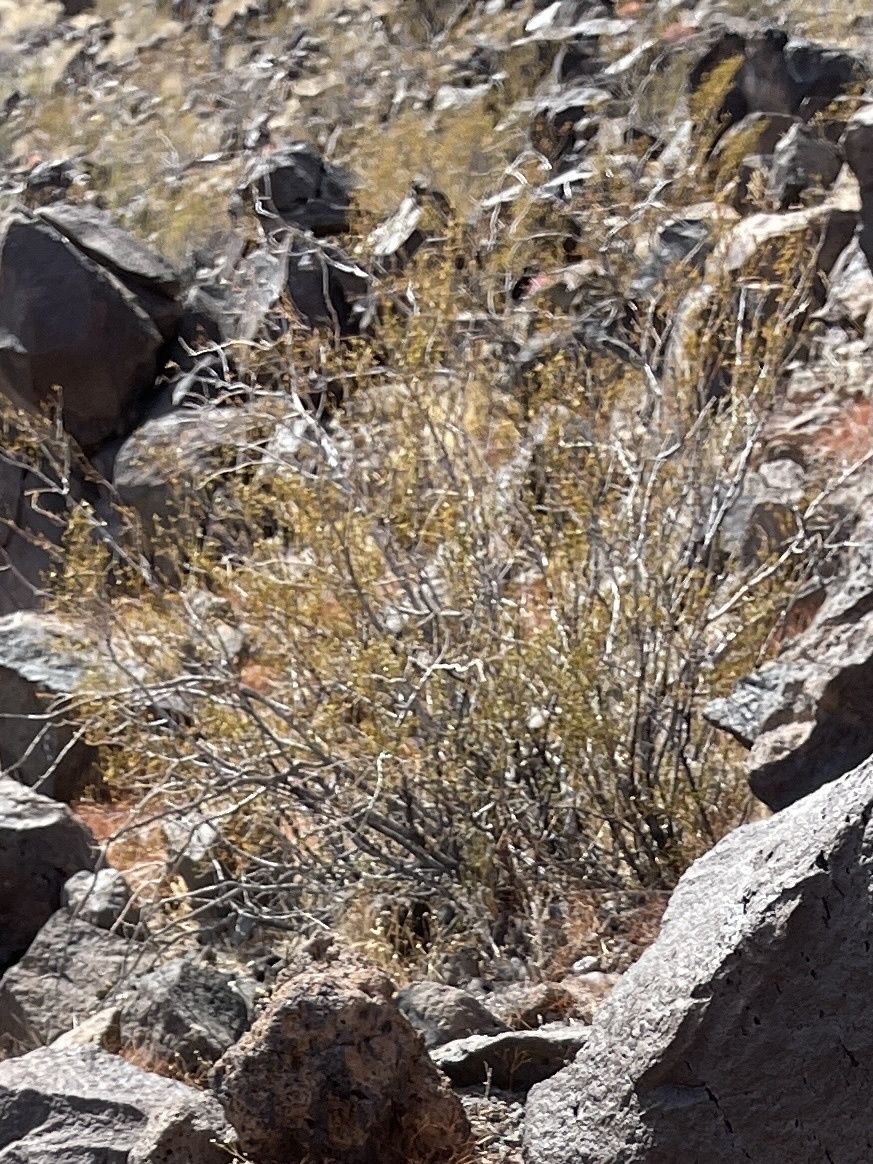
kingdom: Plantae
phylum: Tracheophyta
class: Magnoliopsida
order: Zygophyllales
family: Zygophyllaceae
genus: Larrea
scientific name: Larrea tridentata
